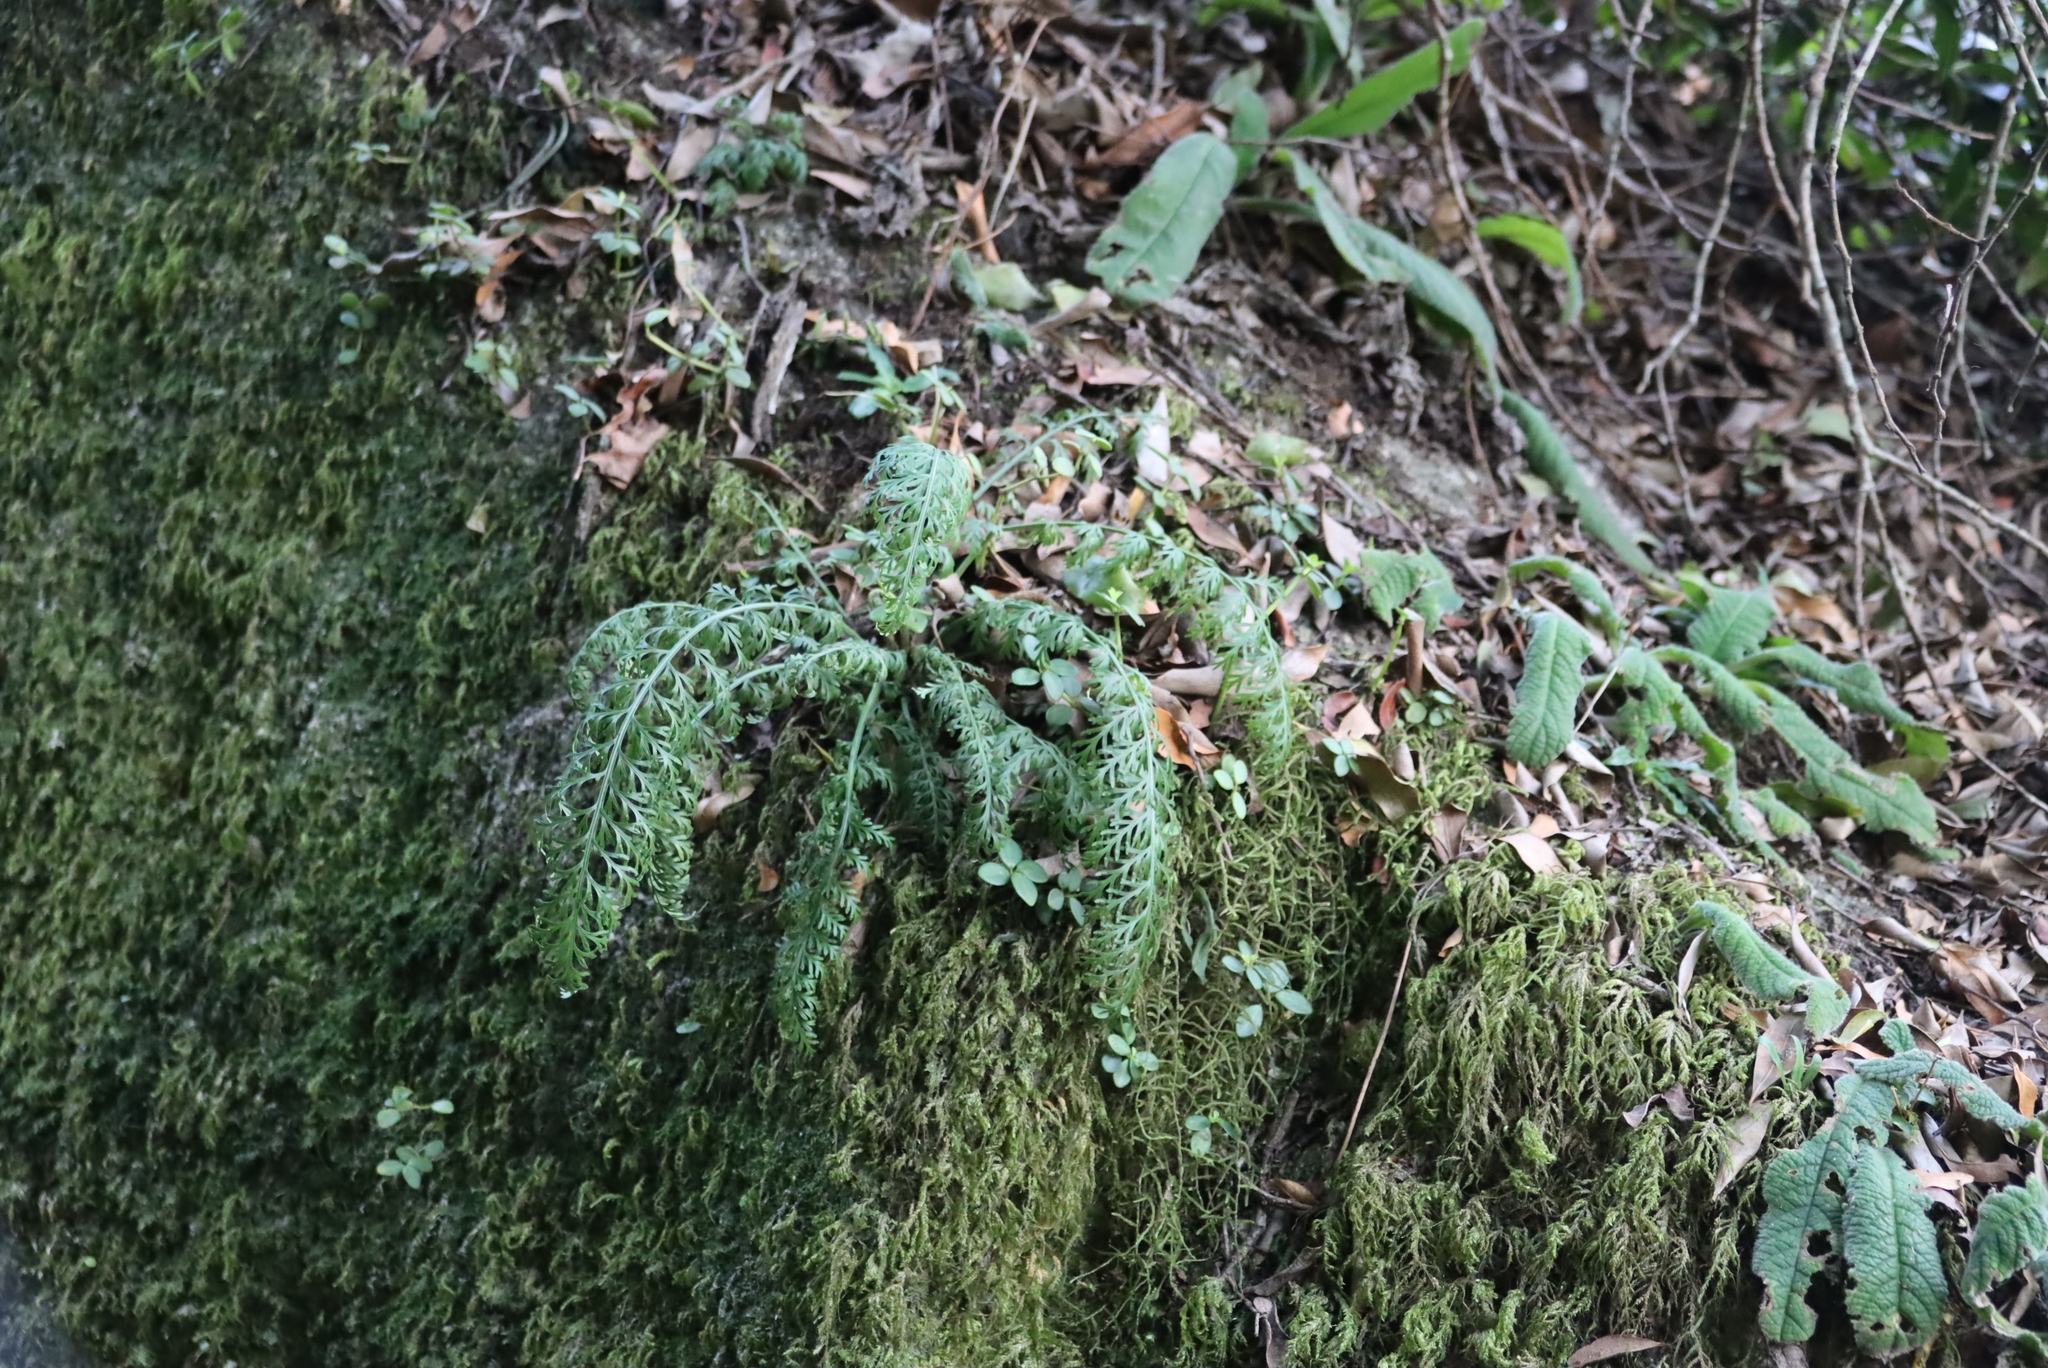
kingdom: Plantae
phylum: Tracheophyta
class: Polypodiopsida
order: Polypodiales
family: Aspleniaceae
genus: Asplenium
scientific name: Asplenium theciferum
